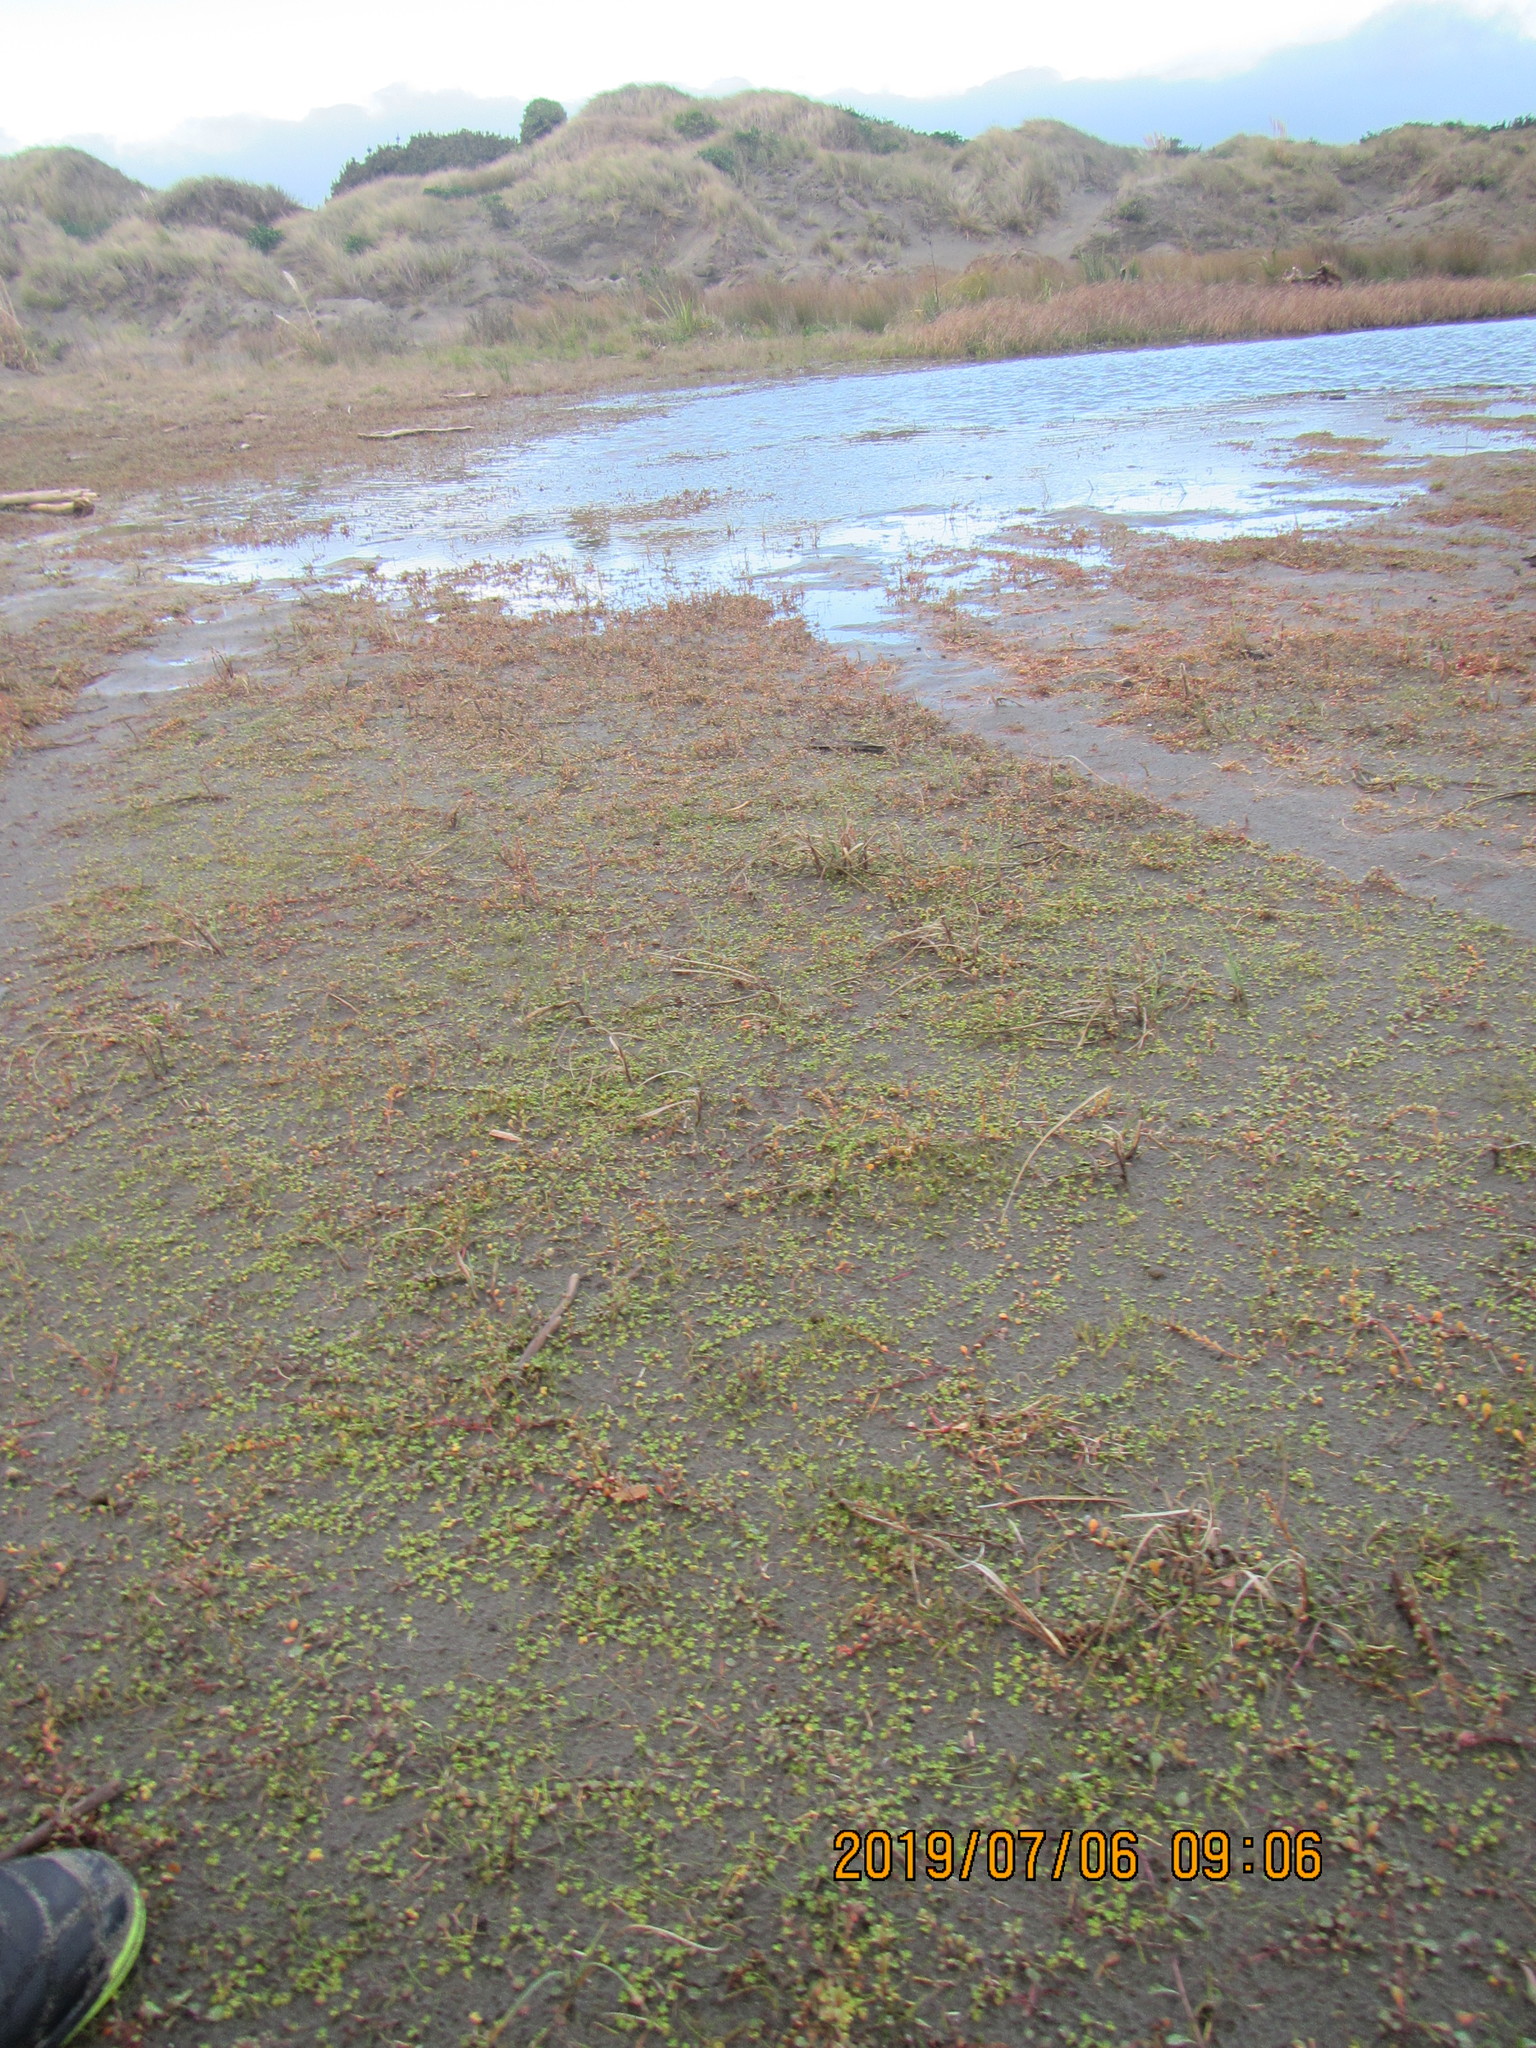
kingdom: Plantae
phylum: Tracheophyta
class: Magnoliopsida
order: Ranunculales
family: Ranunculaceae
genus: Ranunculus
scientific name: Ranunculus acaulis
